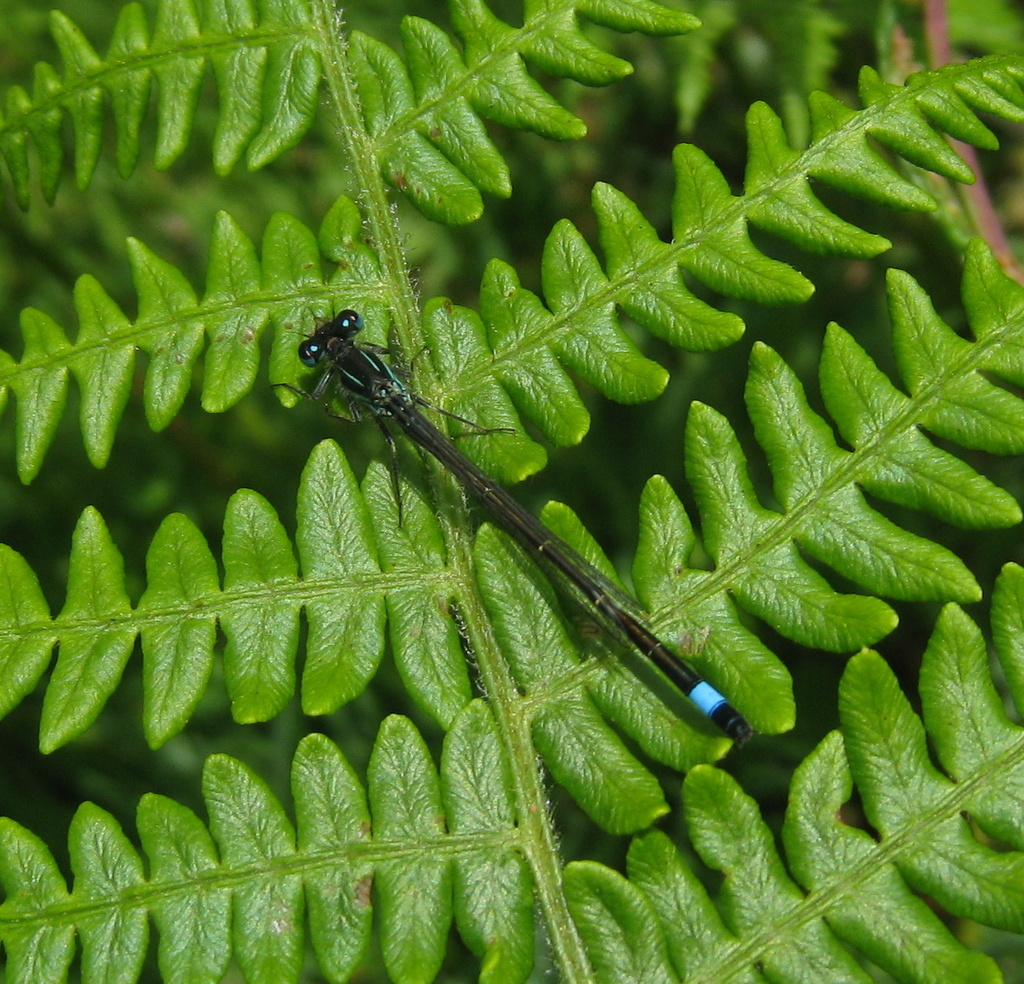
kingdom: Animalia
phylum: Arthropoda
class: Insecta
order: Odonata
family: Coenagrionidae
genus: Ischnura
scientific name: Ischnura elegans
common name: Blue-tailed damselfly
